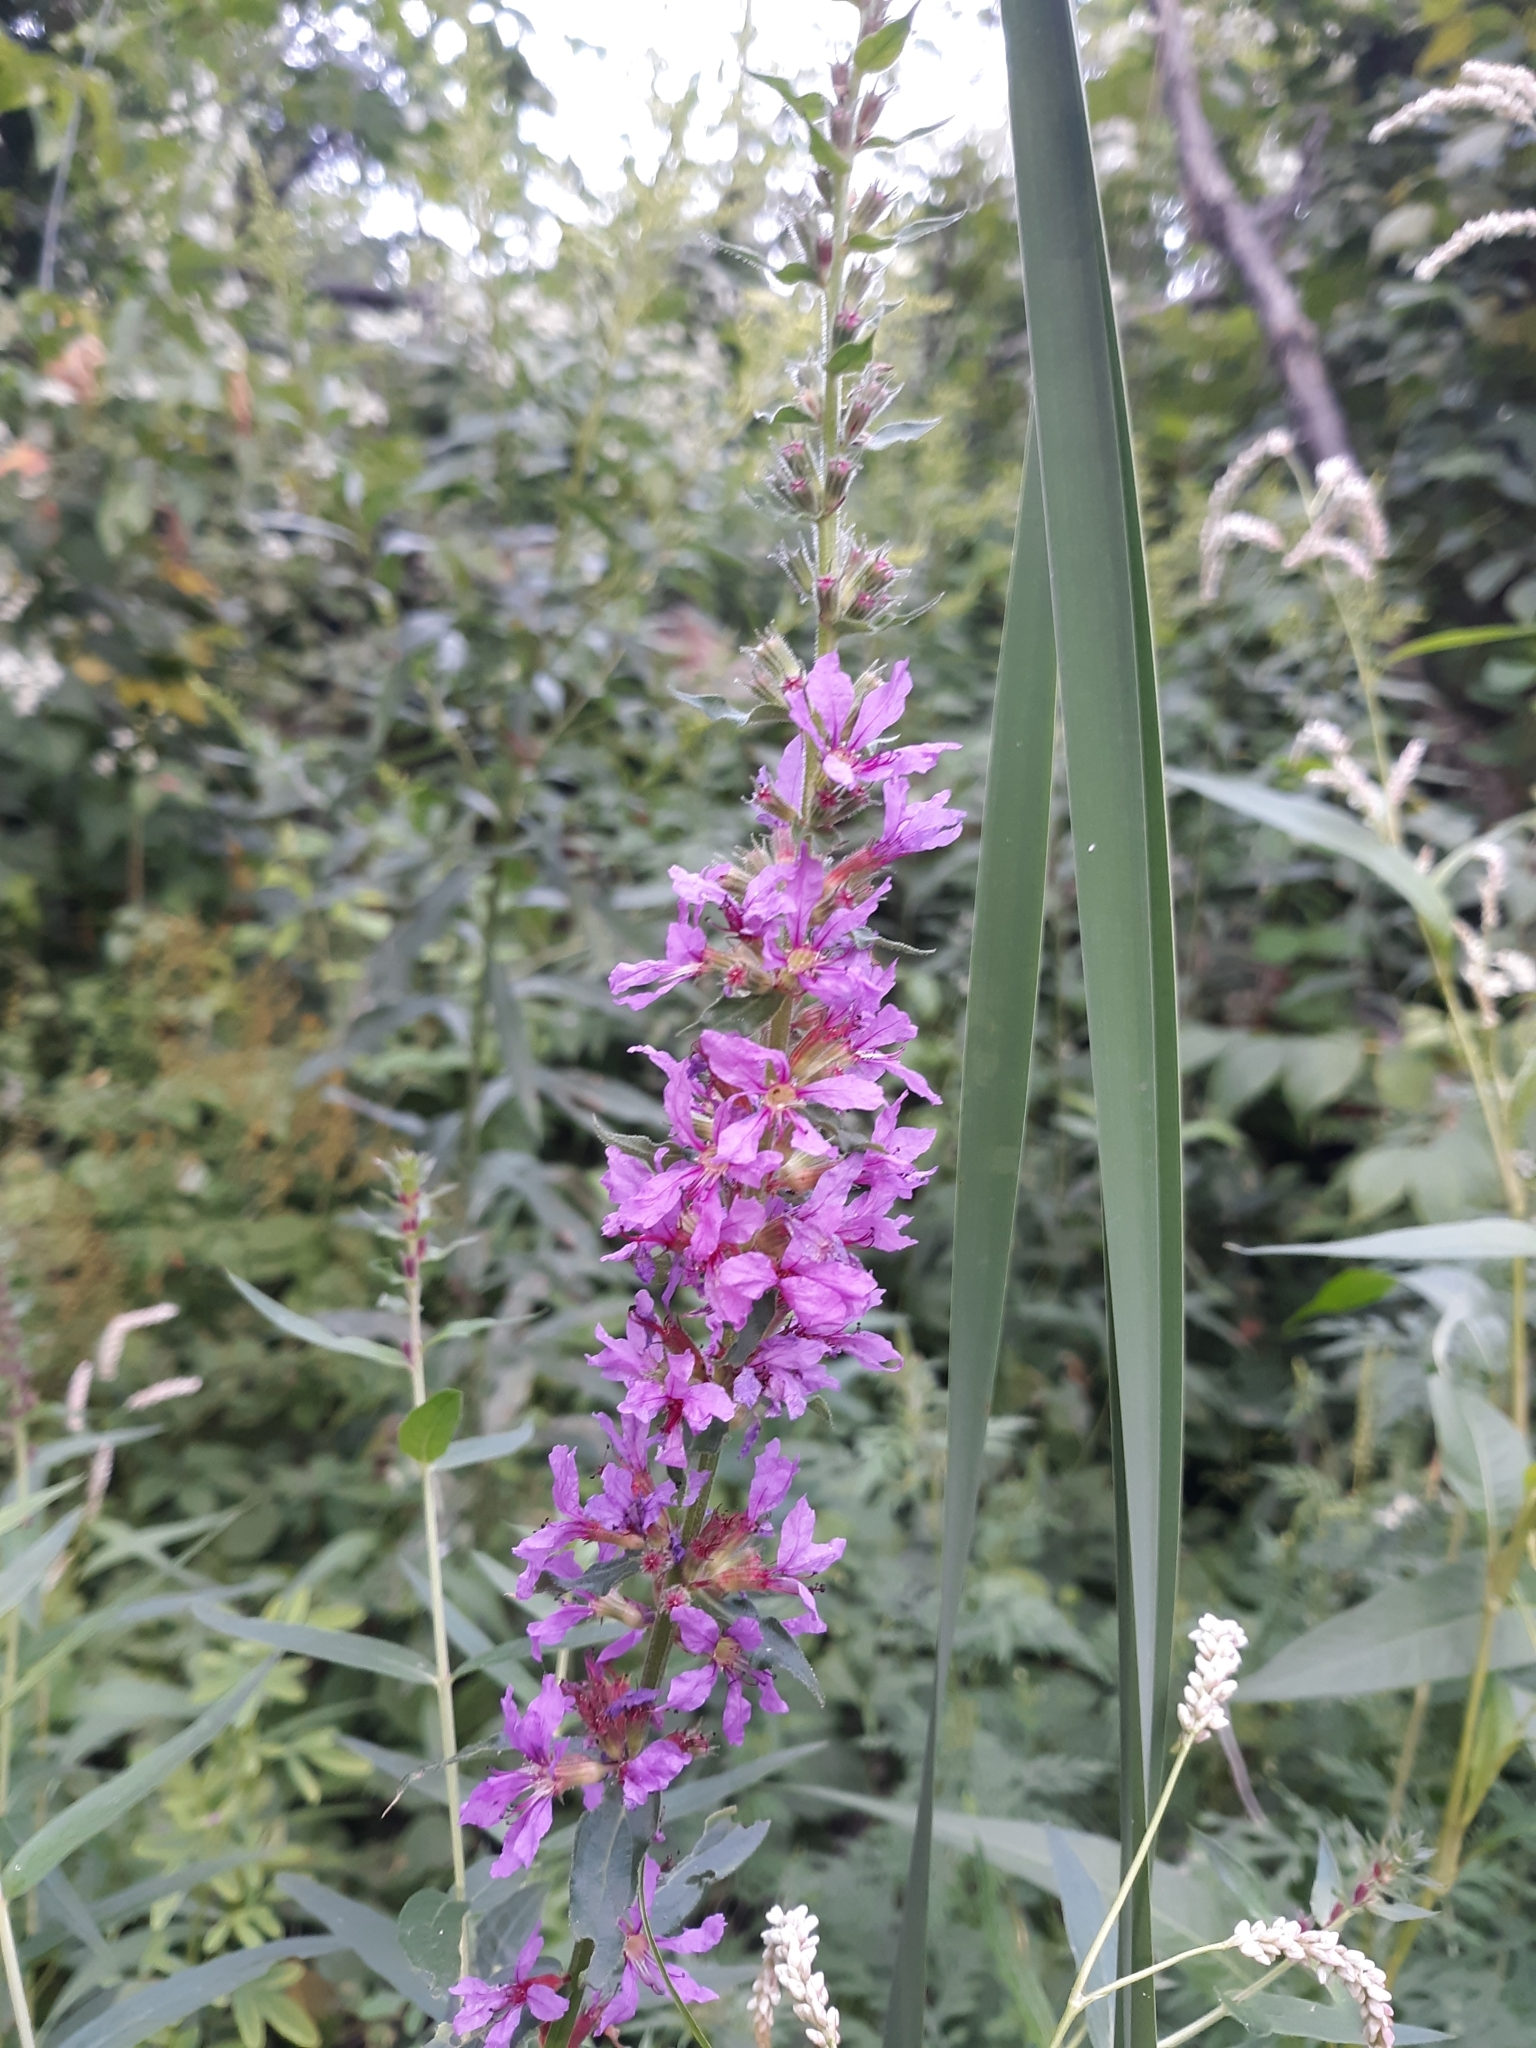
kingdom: Plantae
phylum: Tracheophyta
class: Magnoliopsida
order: Myrtales
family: Lythraceae
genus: Lythrum
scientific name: Lythrum salicaria
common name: Purple loosestrife
